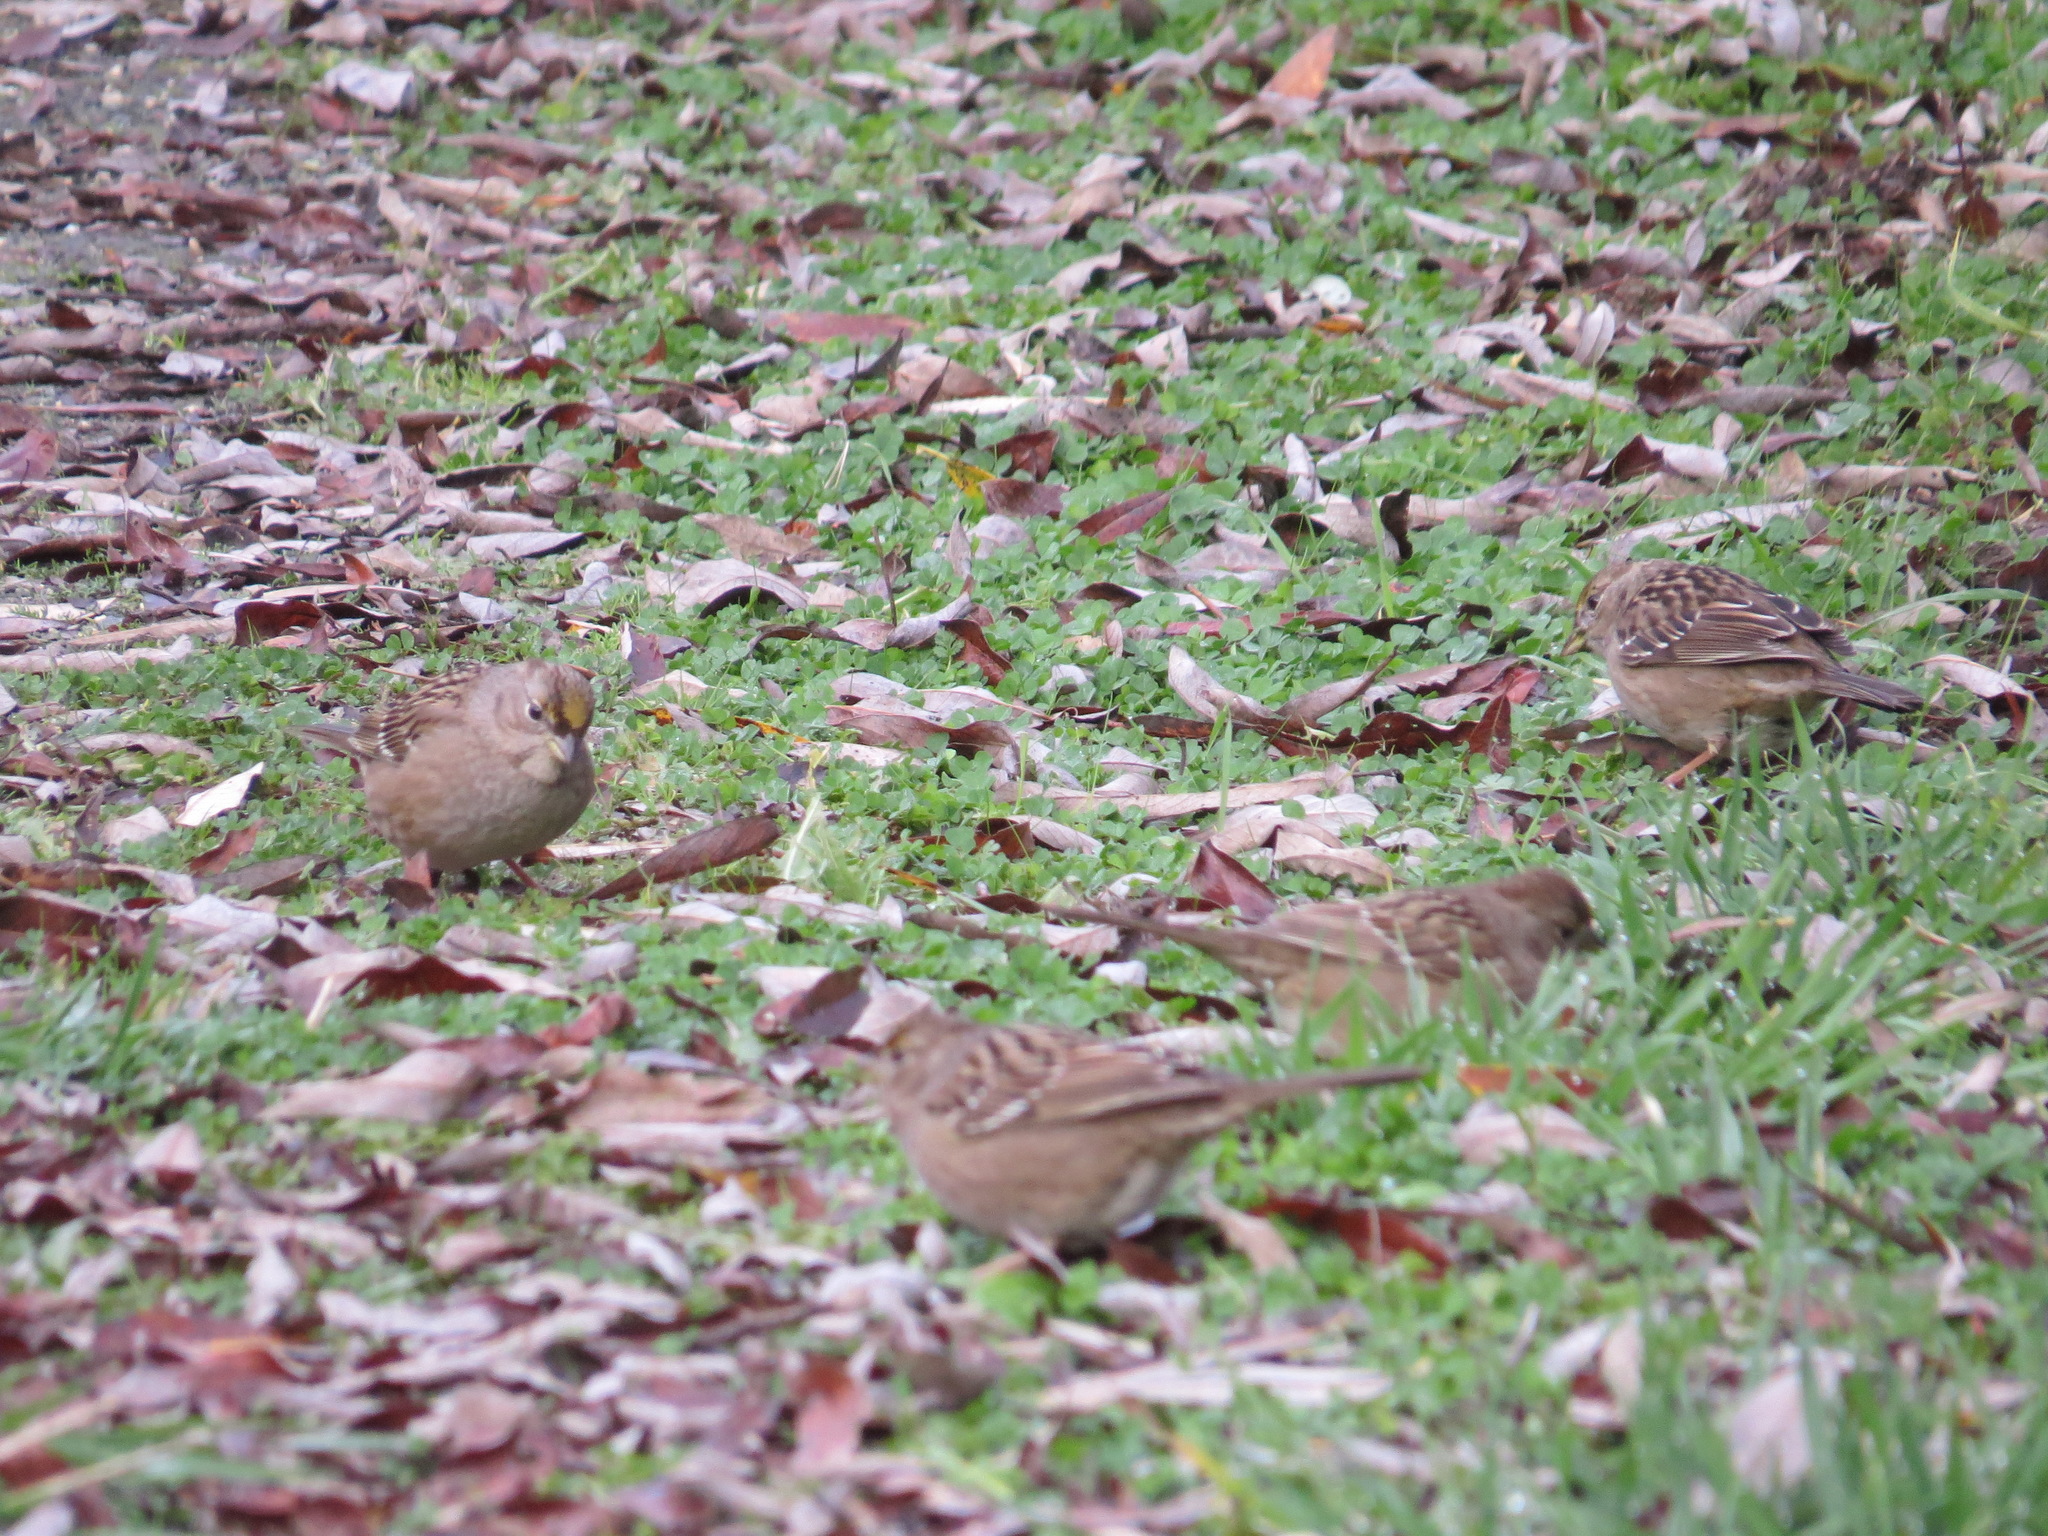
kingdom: Animalia
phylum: Chordata
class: Aves
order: Passeriformes
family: Passerellidae
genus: Zonotrichia
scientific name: Zonotrichia atricapilla
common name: Golden-crowned sparrow
